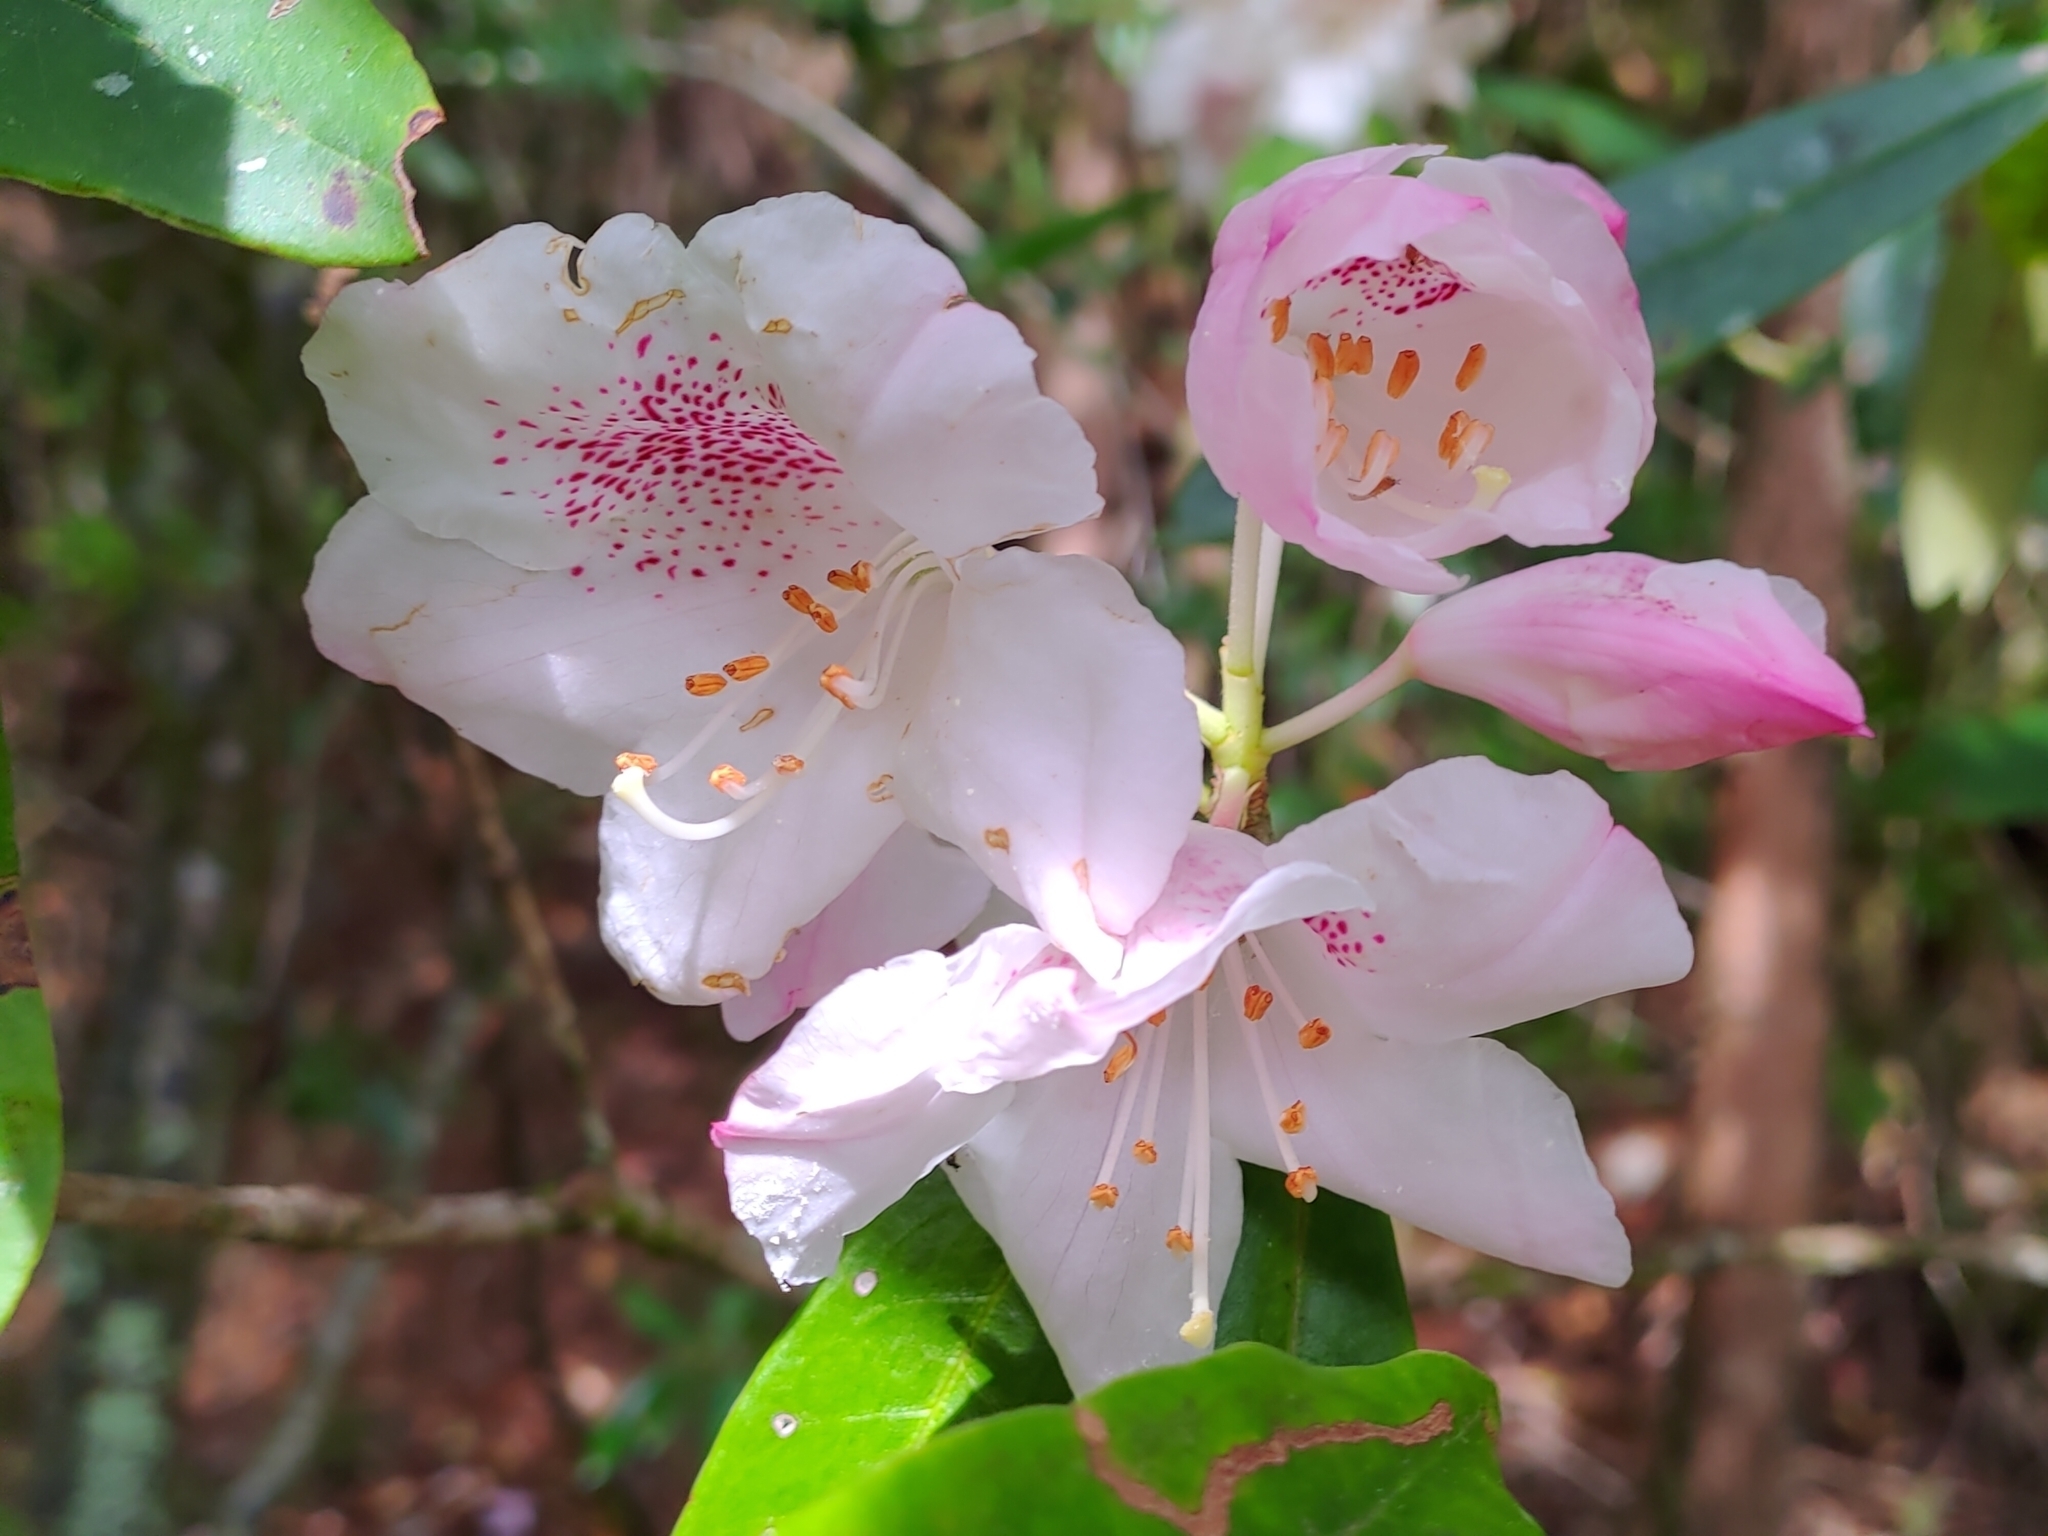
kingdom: Plantae
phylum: Tracheophyta
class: Magnoliopsida
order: Ericales
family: Ericaceae
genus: Rhododendron
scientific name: Rhododendron pseudochrysanthum
